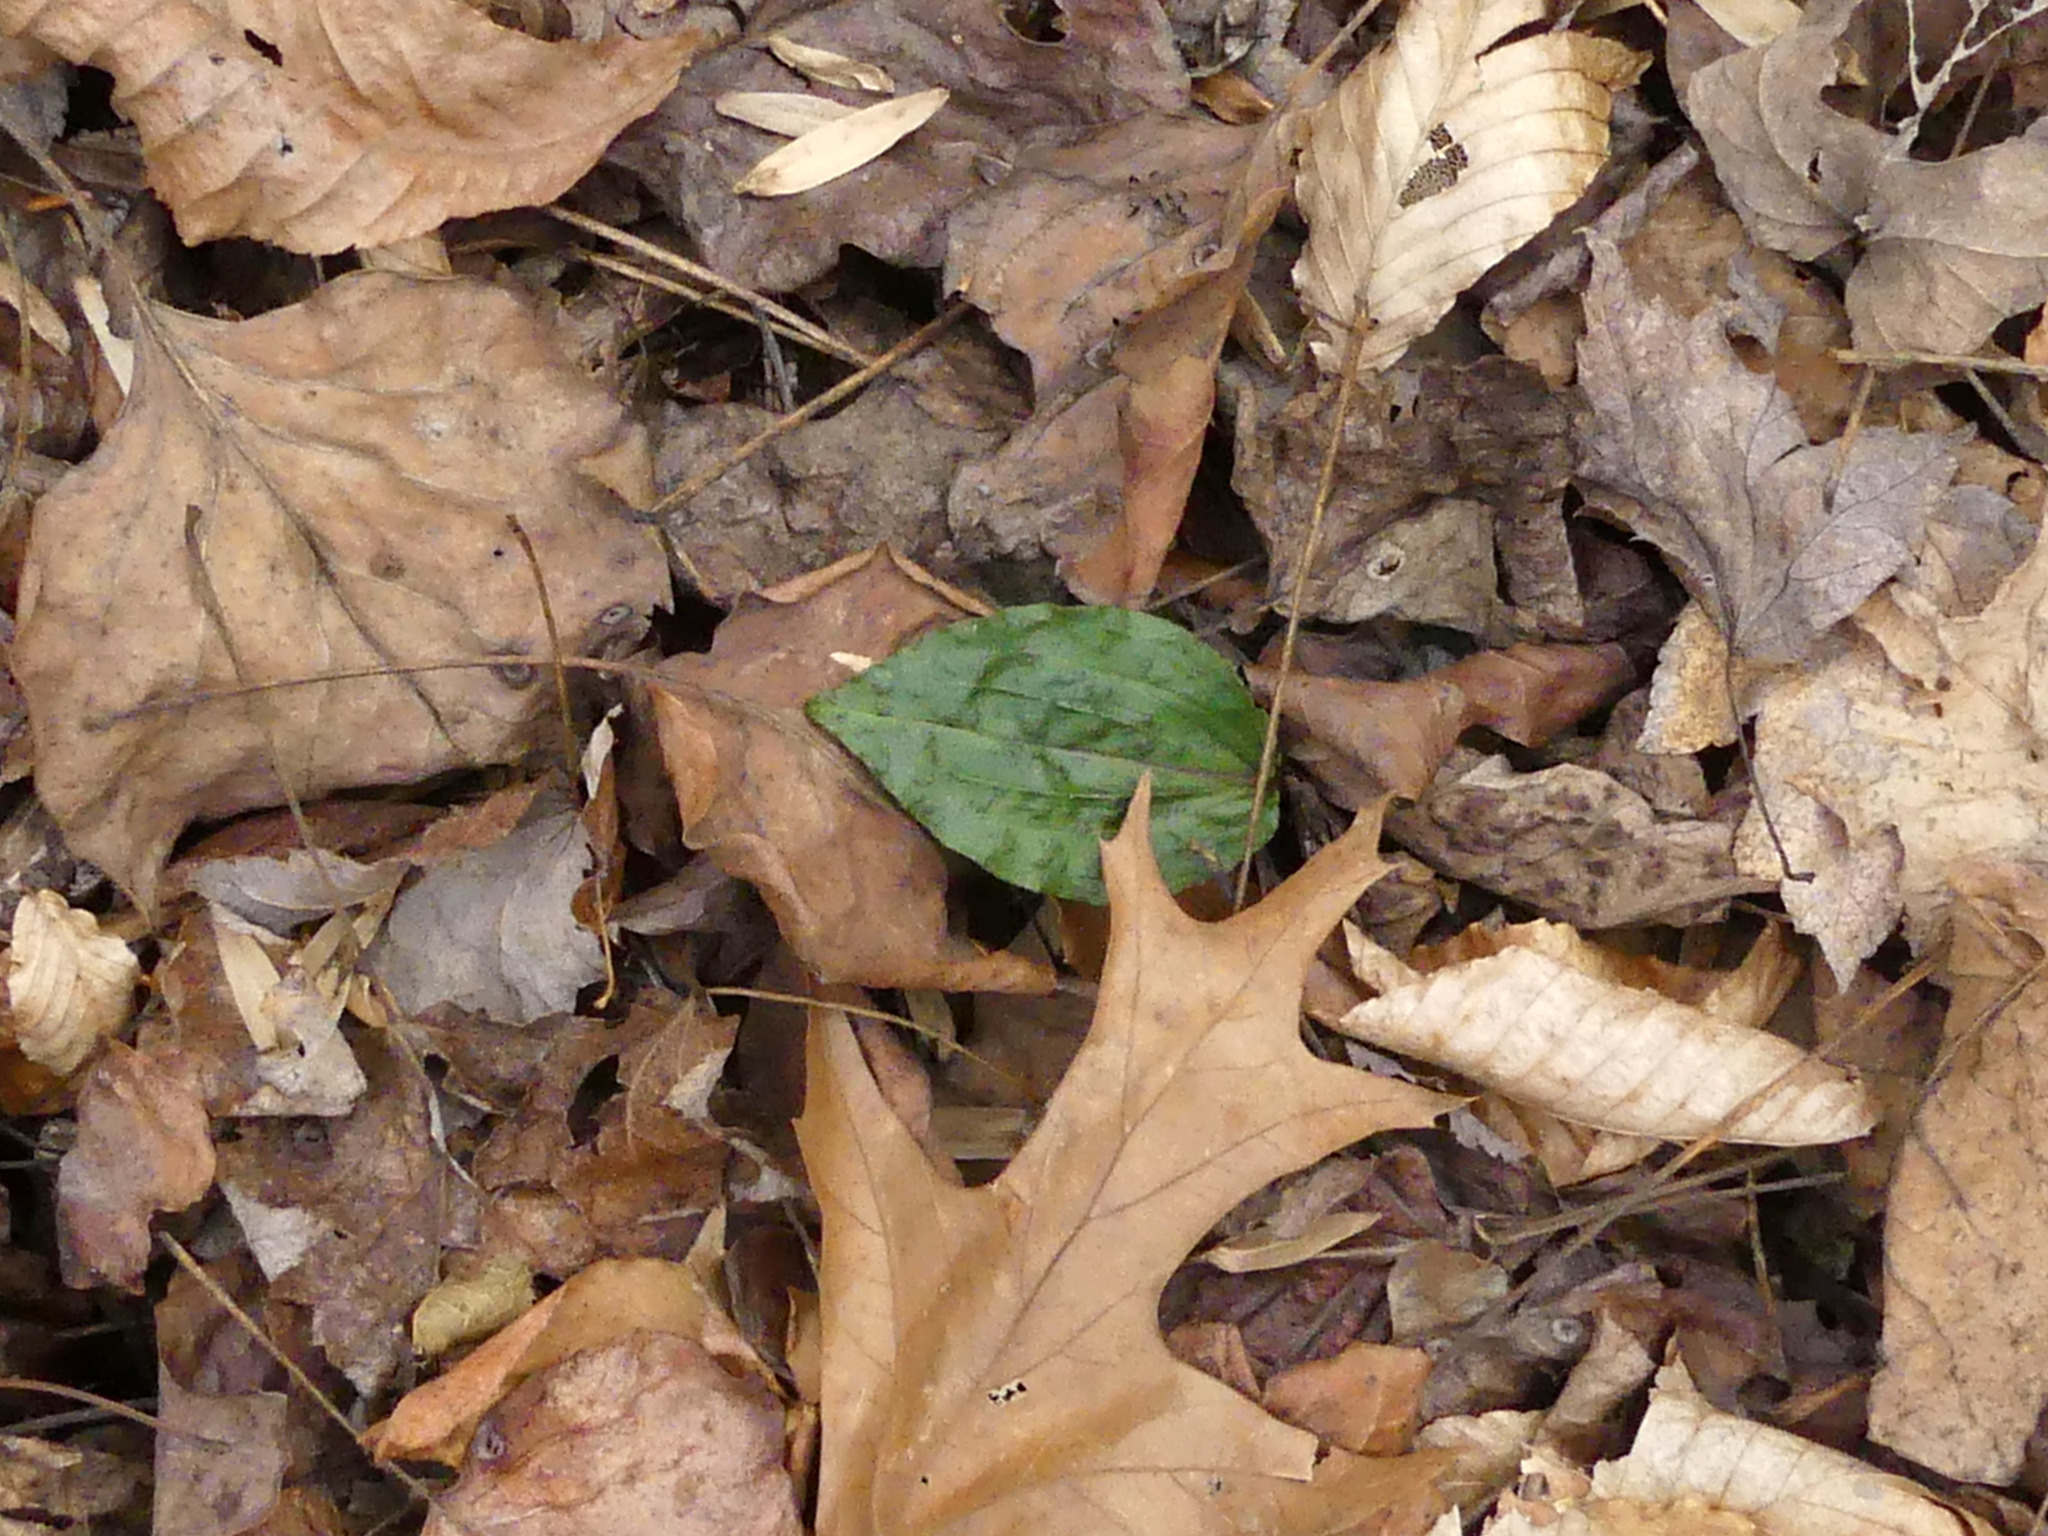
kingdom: Plantae
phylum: Tracheophyta
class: Liliopsida
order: Asparagales
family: Orchidaceae
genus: Tipularia
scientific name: Tipularia discolor
